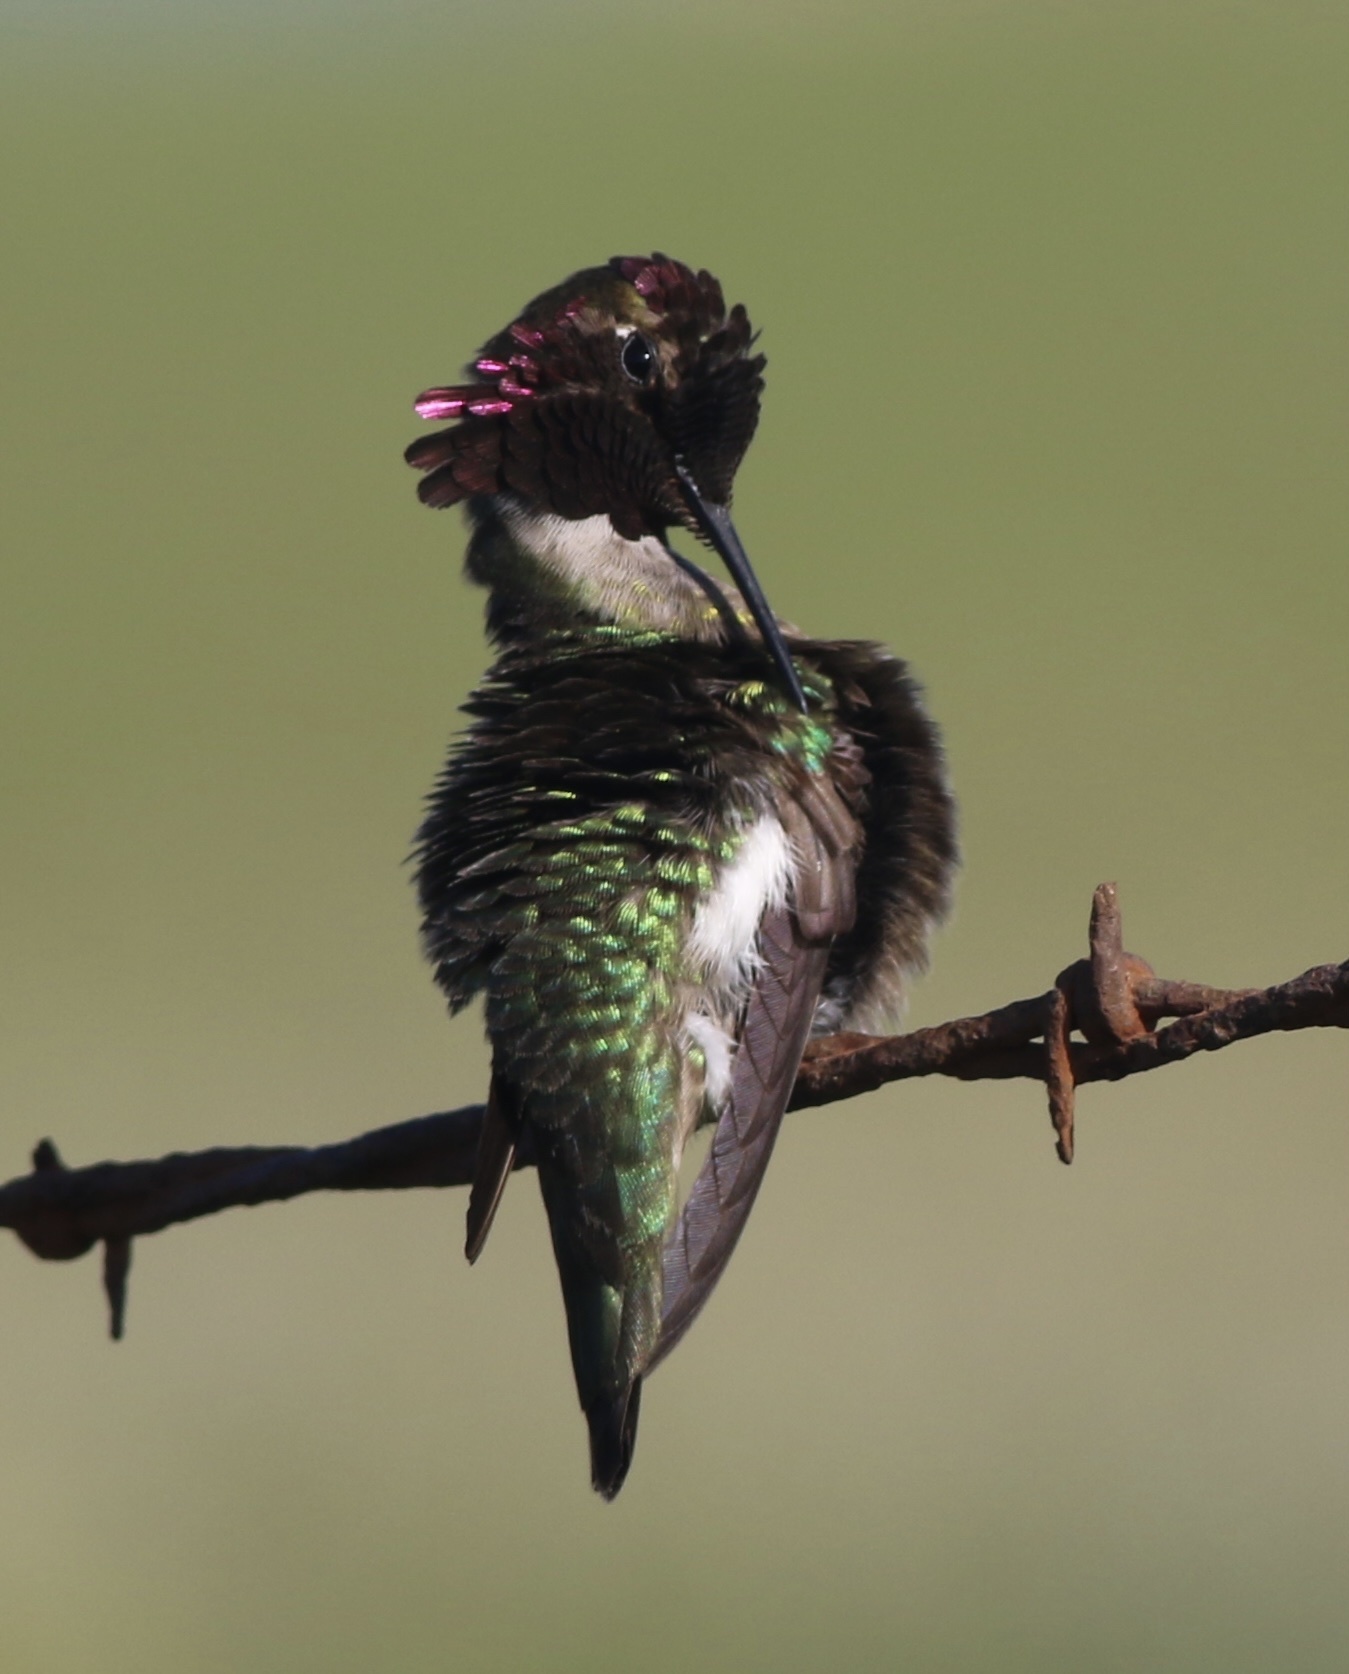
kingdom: Animalia
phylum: Chordata
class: Aves
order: Apodiformes
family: Trochilidae
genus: Calypte
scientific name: Calypte anna
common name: Anna's hummingbird
